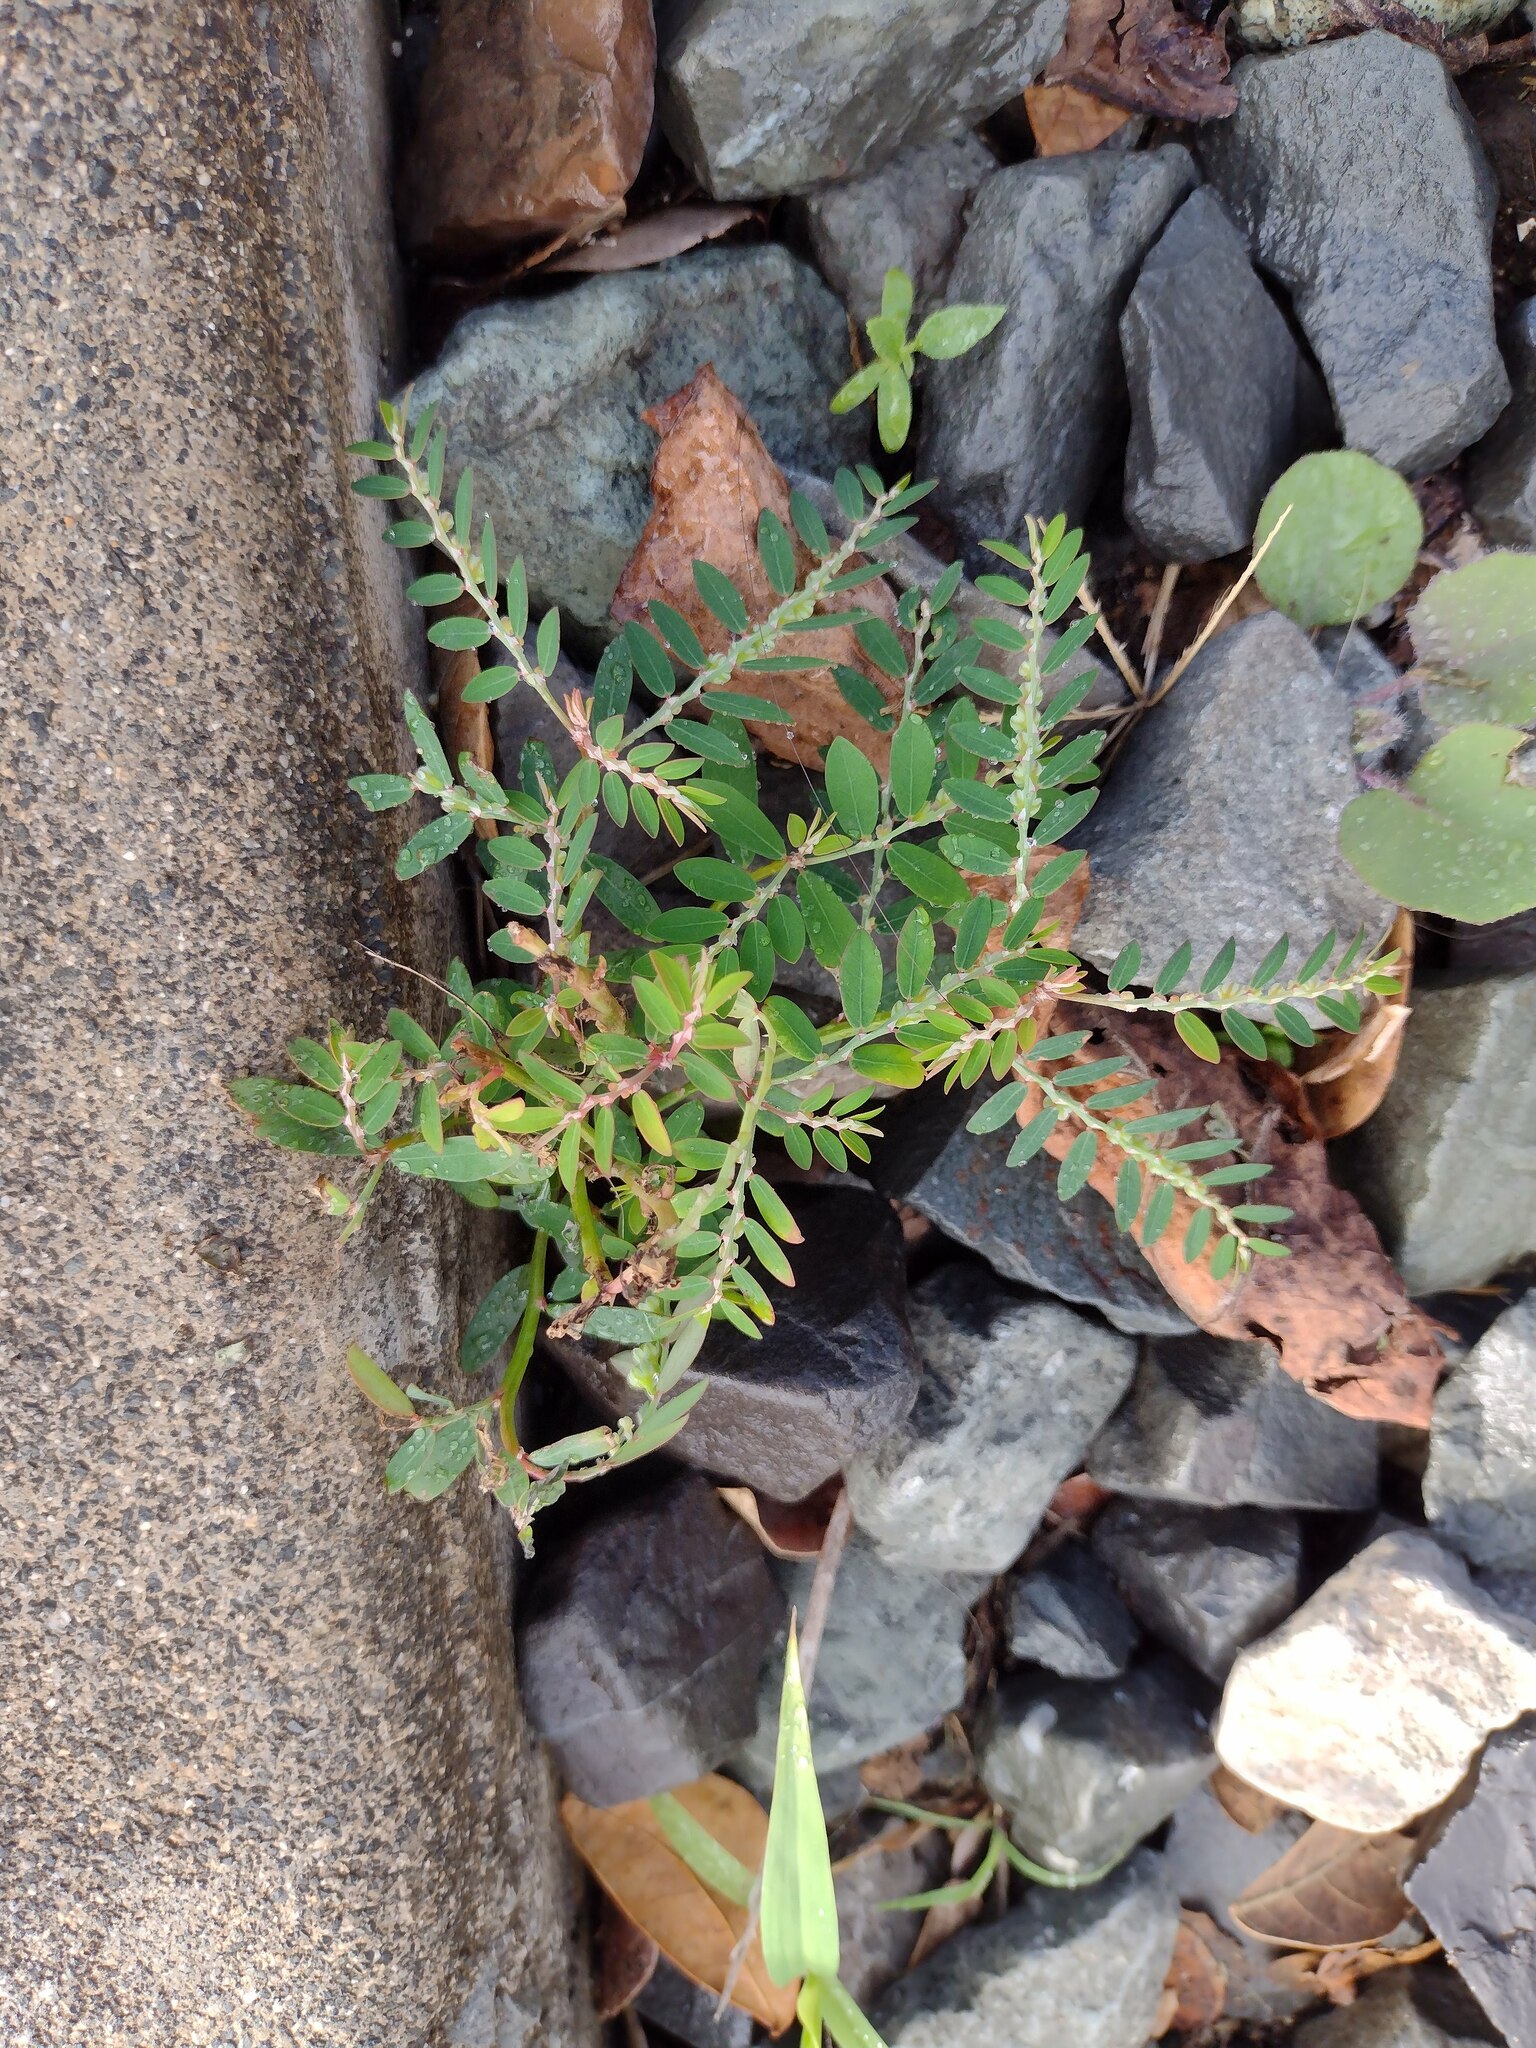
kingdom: Plantae
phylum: Tracheophyta
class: Magnoliopsida
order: Malpighiales
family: Phyllanthaceae
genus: Phyllanthus
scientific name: Phyllanthus debilis
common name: Niruri
